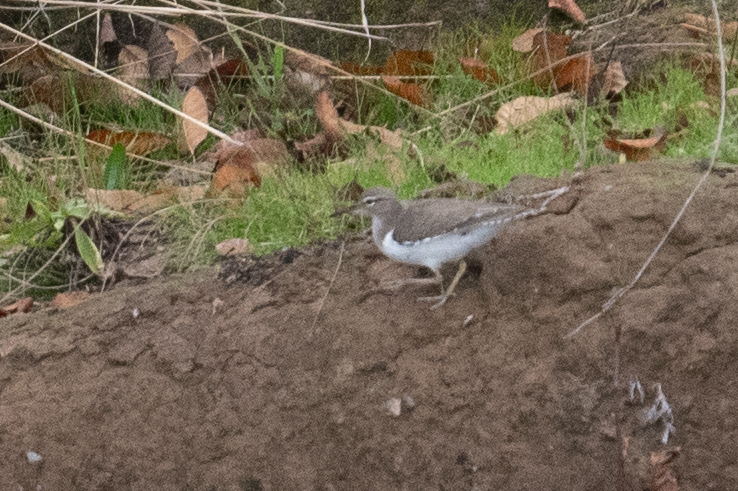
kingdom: Animalia
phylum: Chordata
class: Aves
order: Charadriiformes
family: Scolopacidae
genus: Actitis
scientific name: Actitis macularius
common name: Spotted sandpiper
